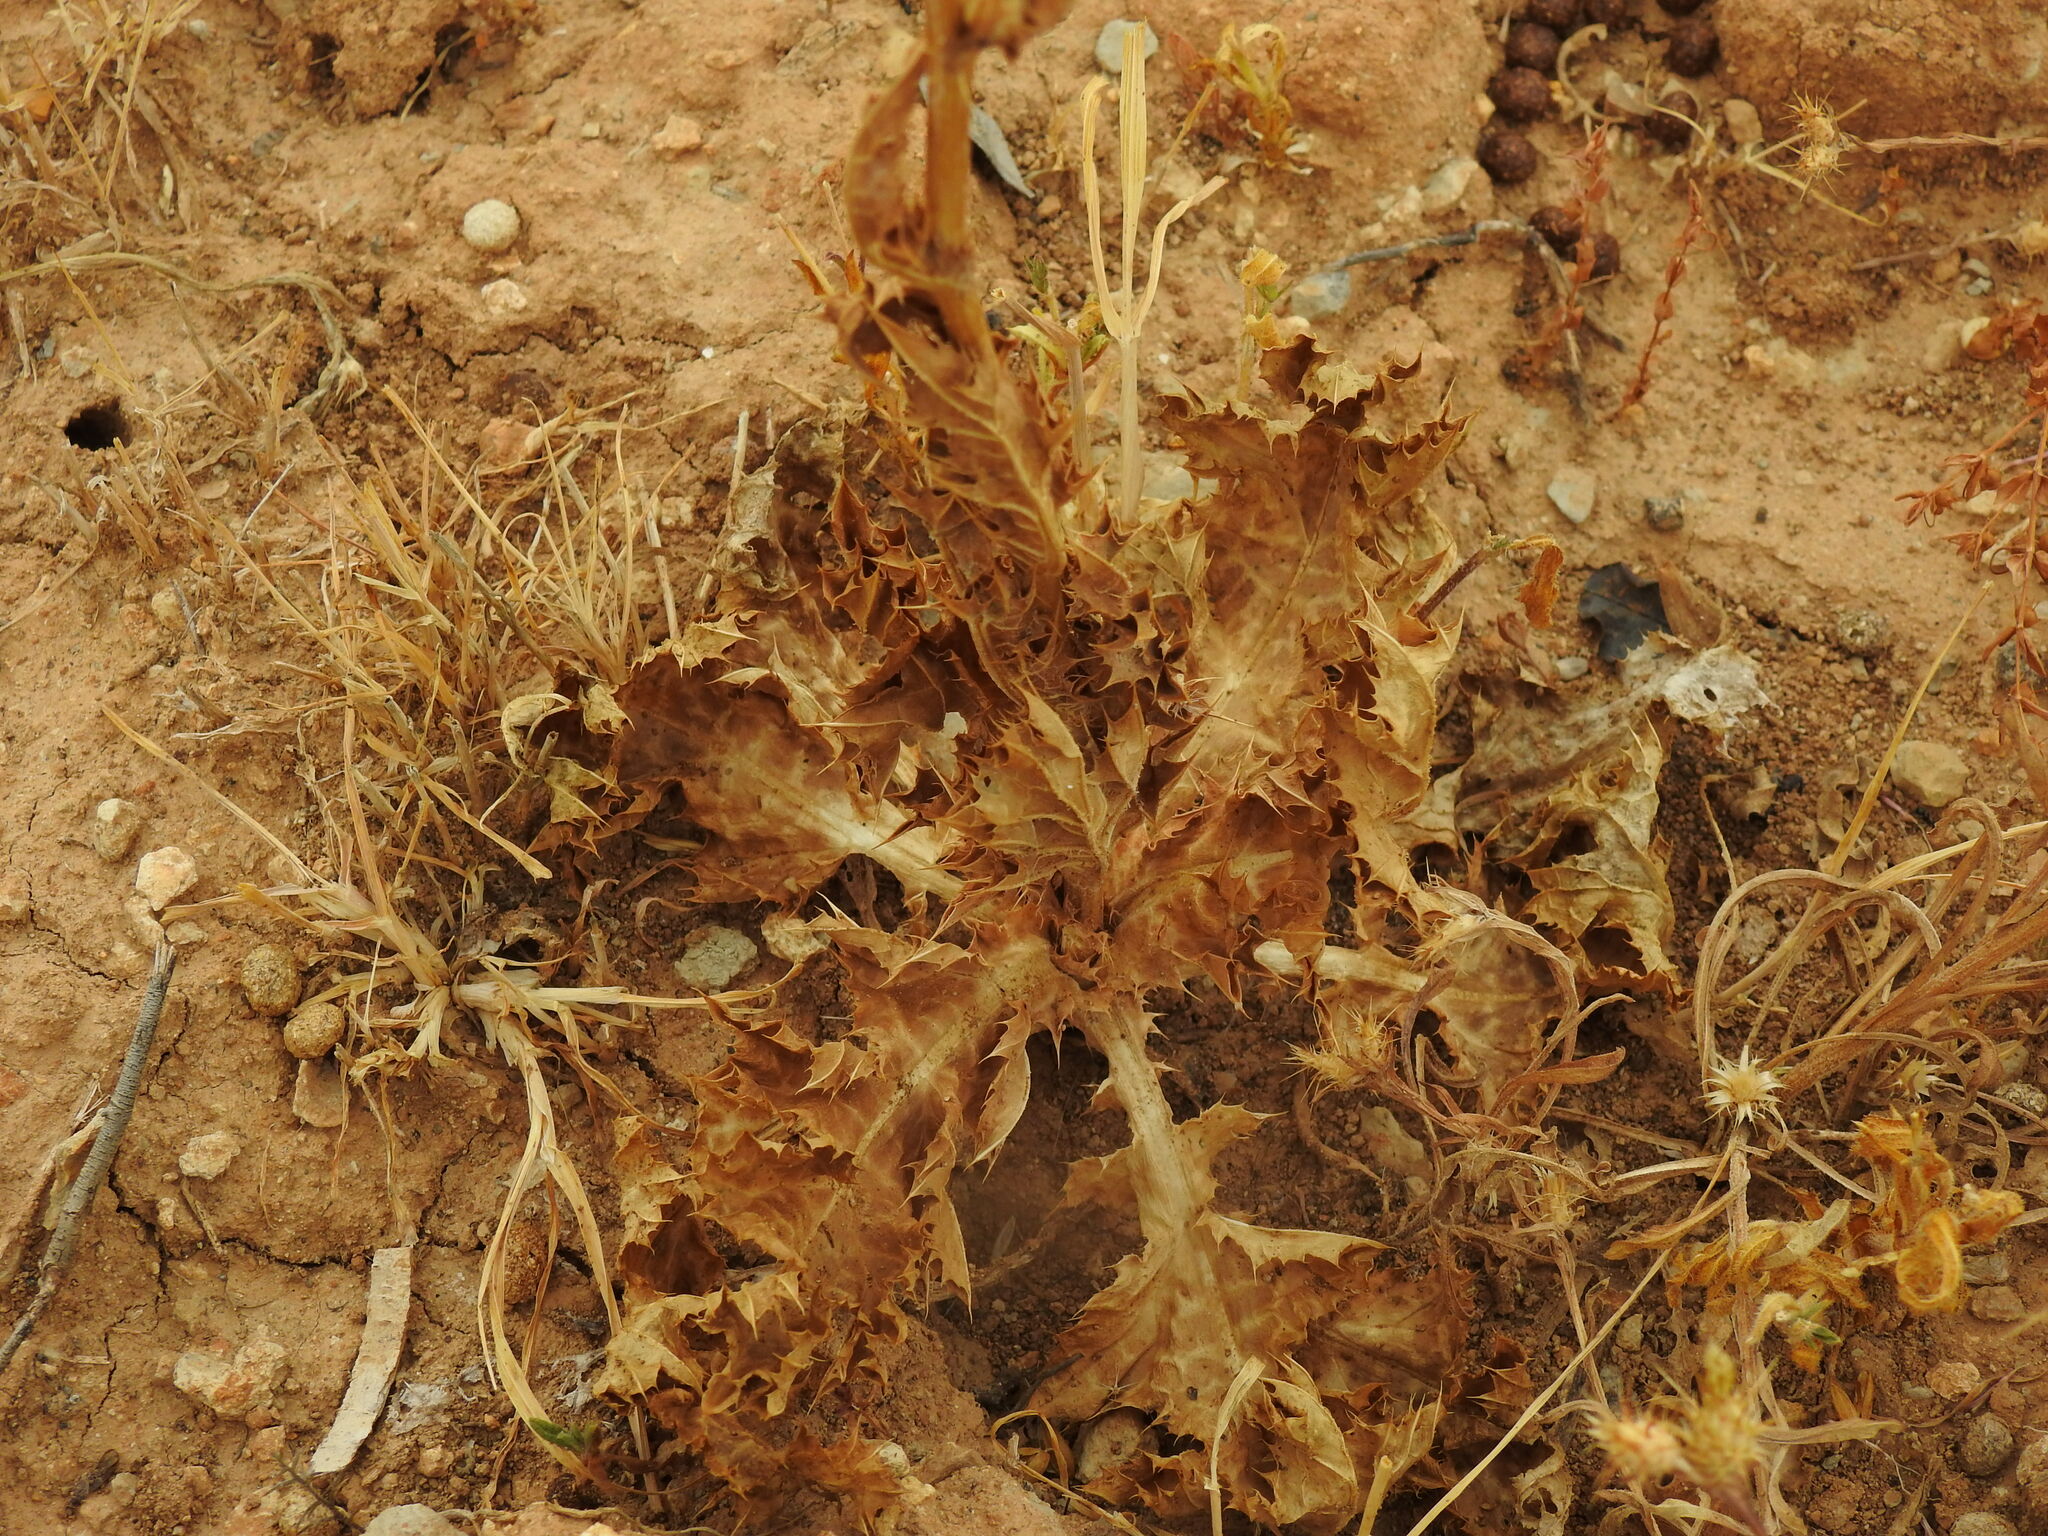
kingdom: Plantae
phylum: Tracheophyta
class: Magnoliopsida
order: Asterales
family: Asteraceae
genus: Silybum
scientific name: Silybum marianum
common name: Milk thistle
